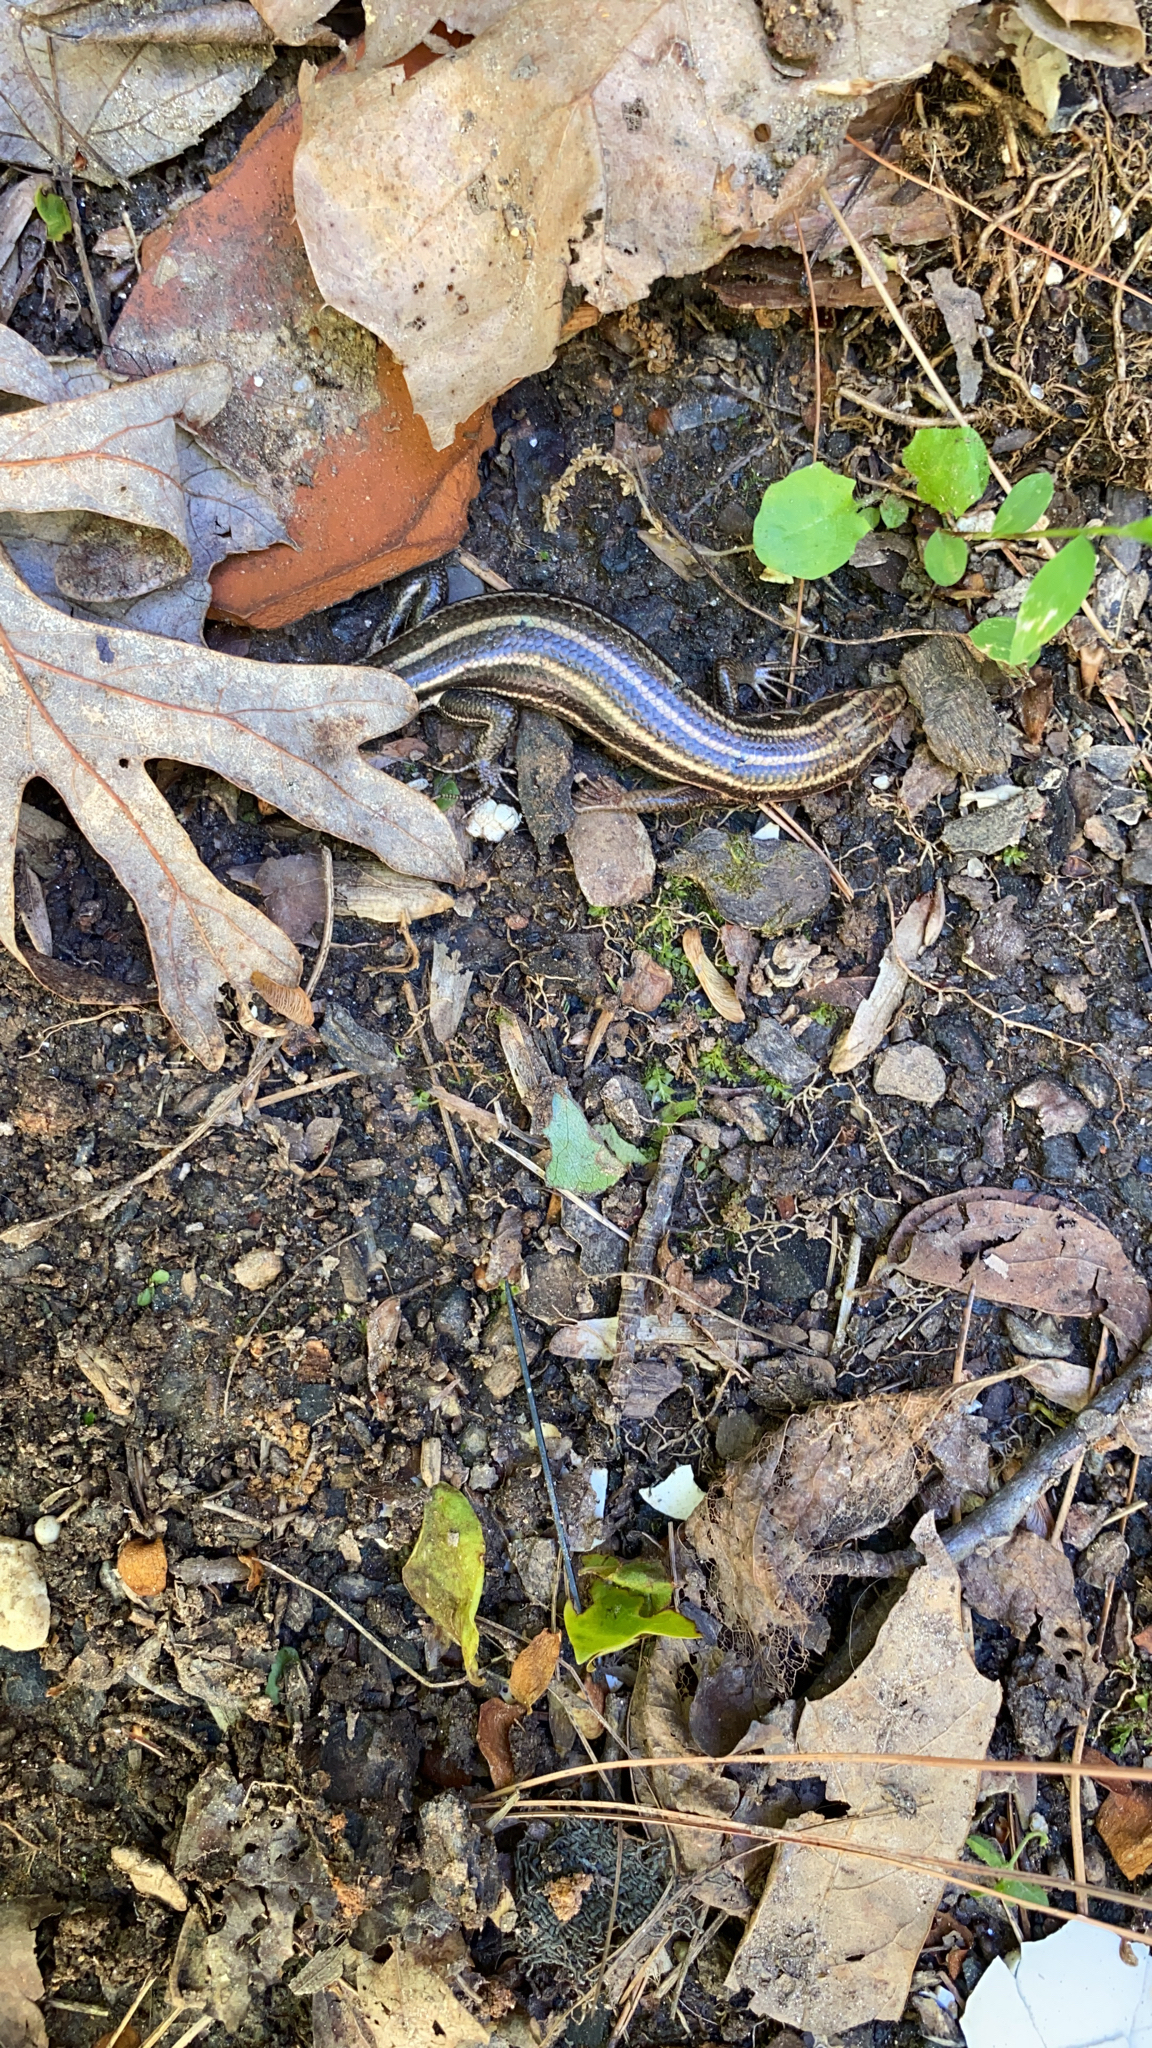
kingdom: Animalia
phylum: Chordata
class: Squamata
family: Scincidae
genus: Plestiodon
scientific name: Plestiodon fasciatus
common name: Five-lined skink
